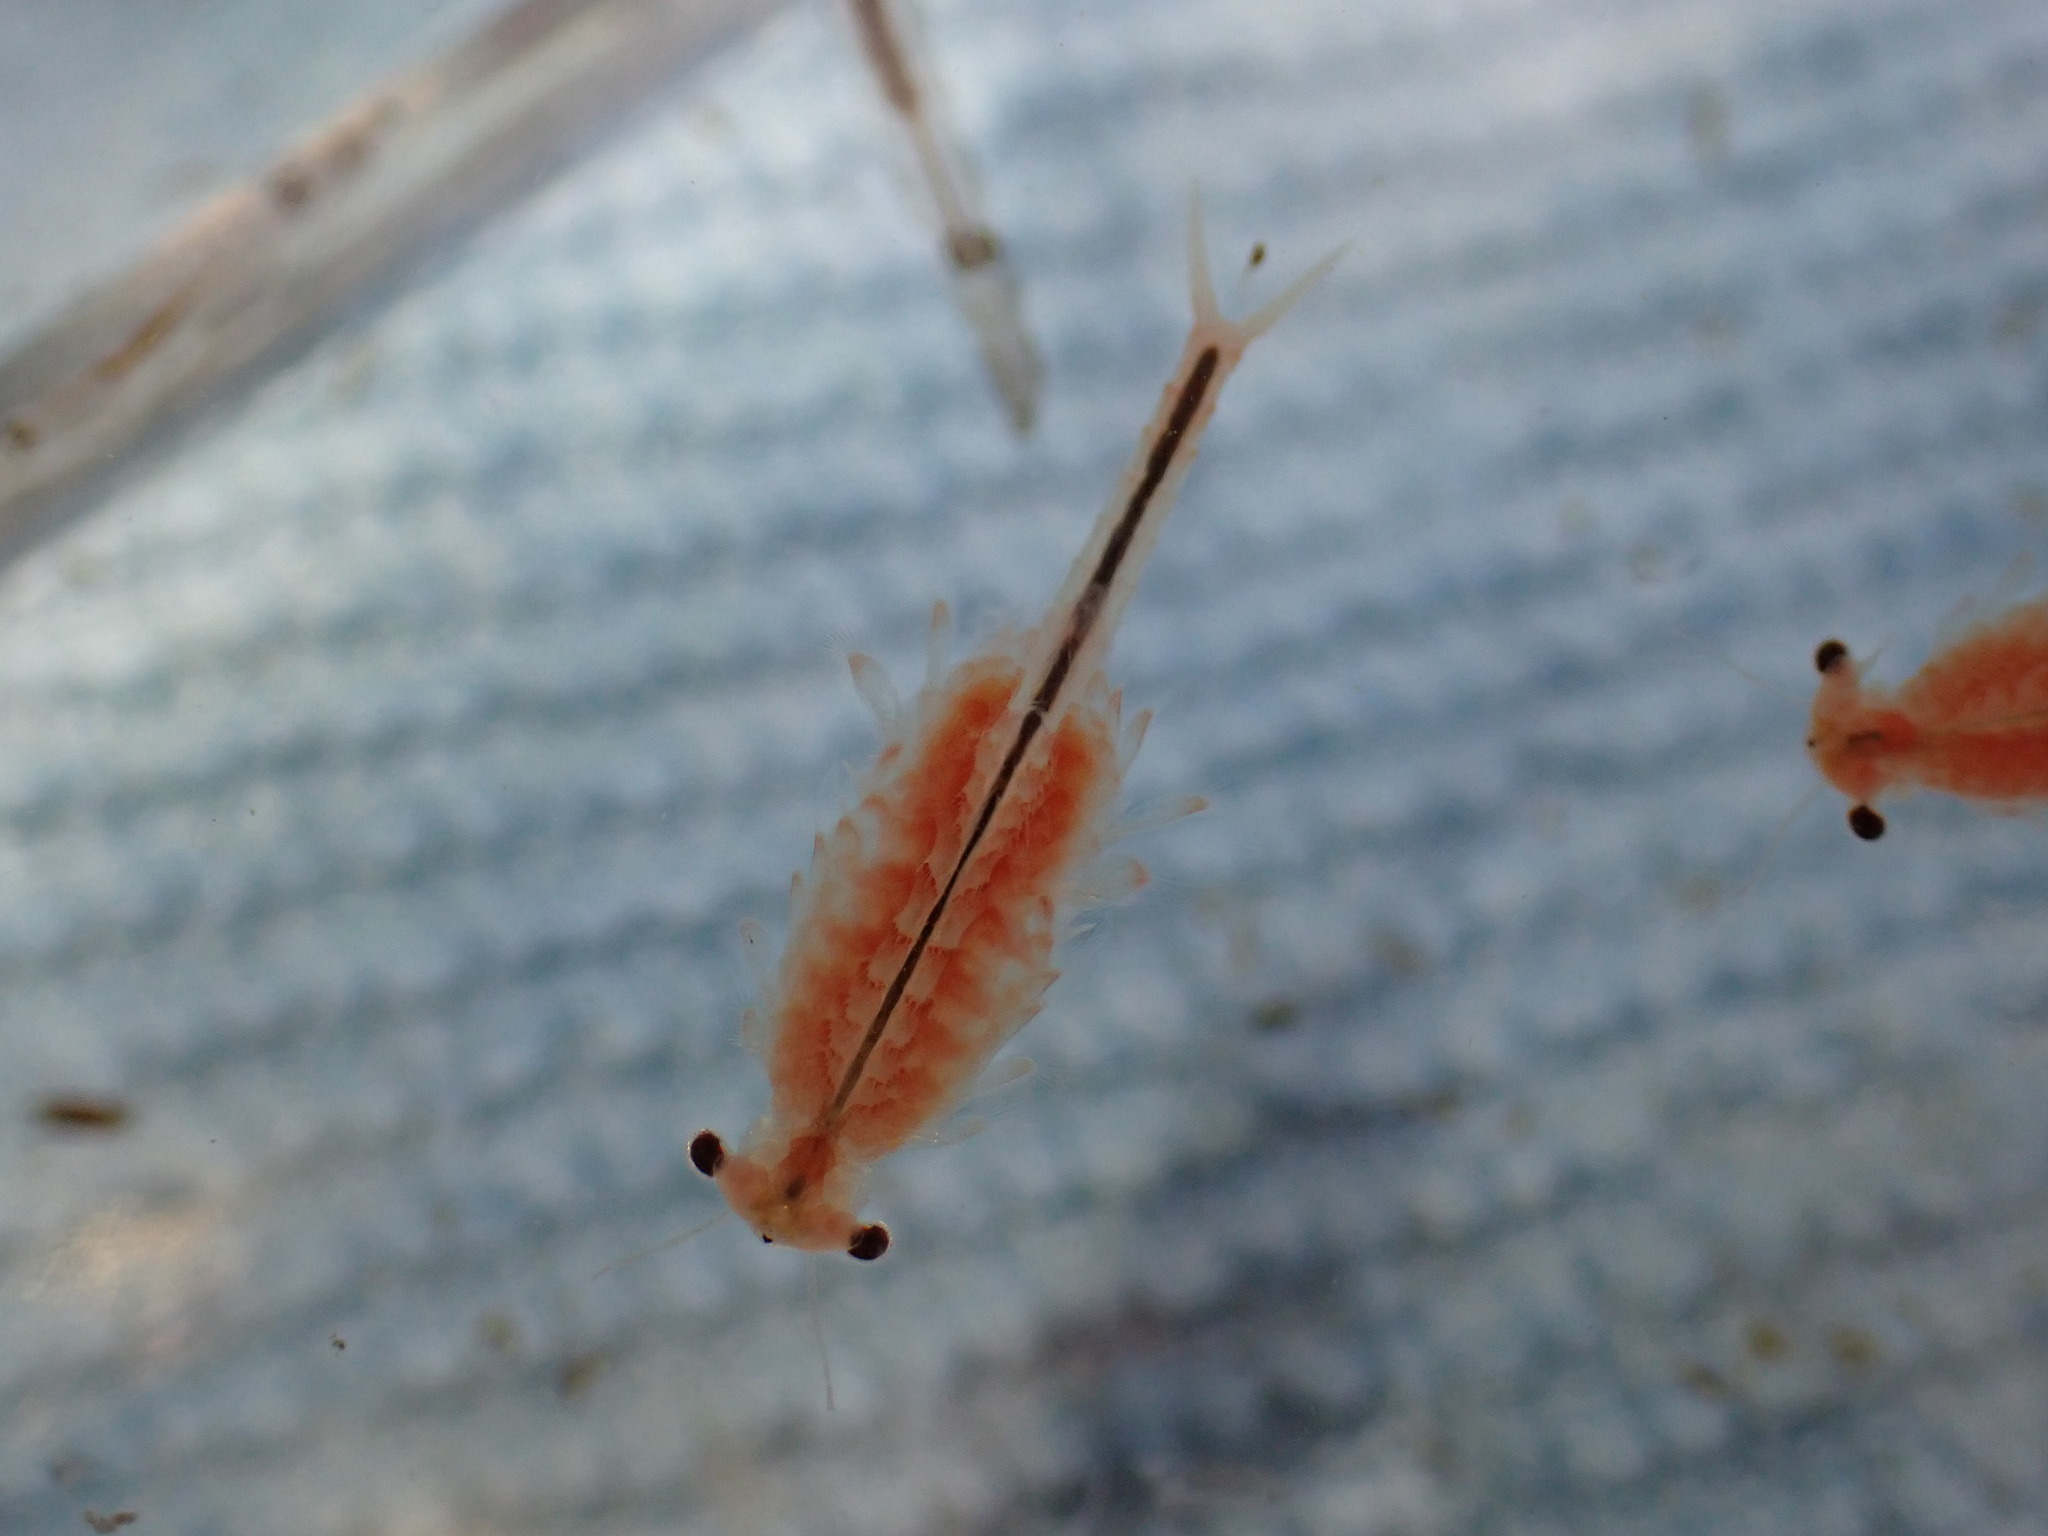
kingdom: Animalia
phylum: Arthropoda
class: Branchiopoda
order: Anostraca
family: Chirocephalidae
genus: Eubranchipus
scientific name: Eubranchipus oregonus
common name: Oregon fairy shrimp
